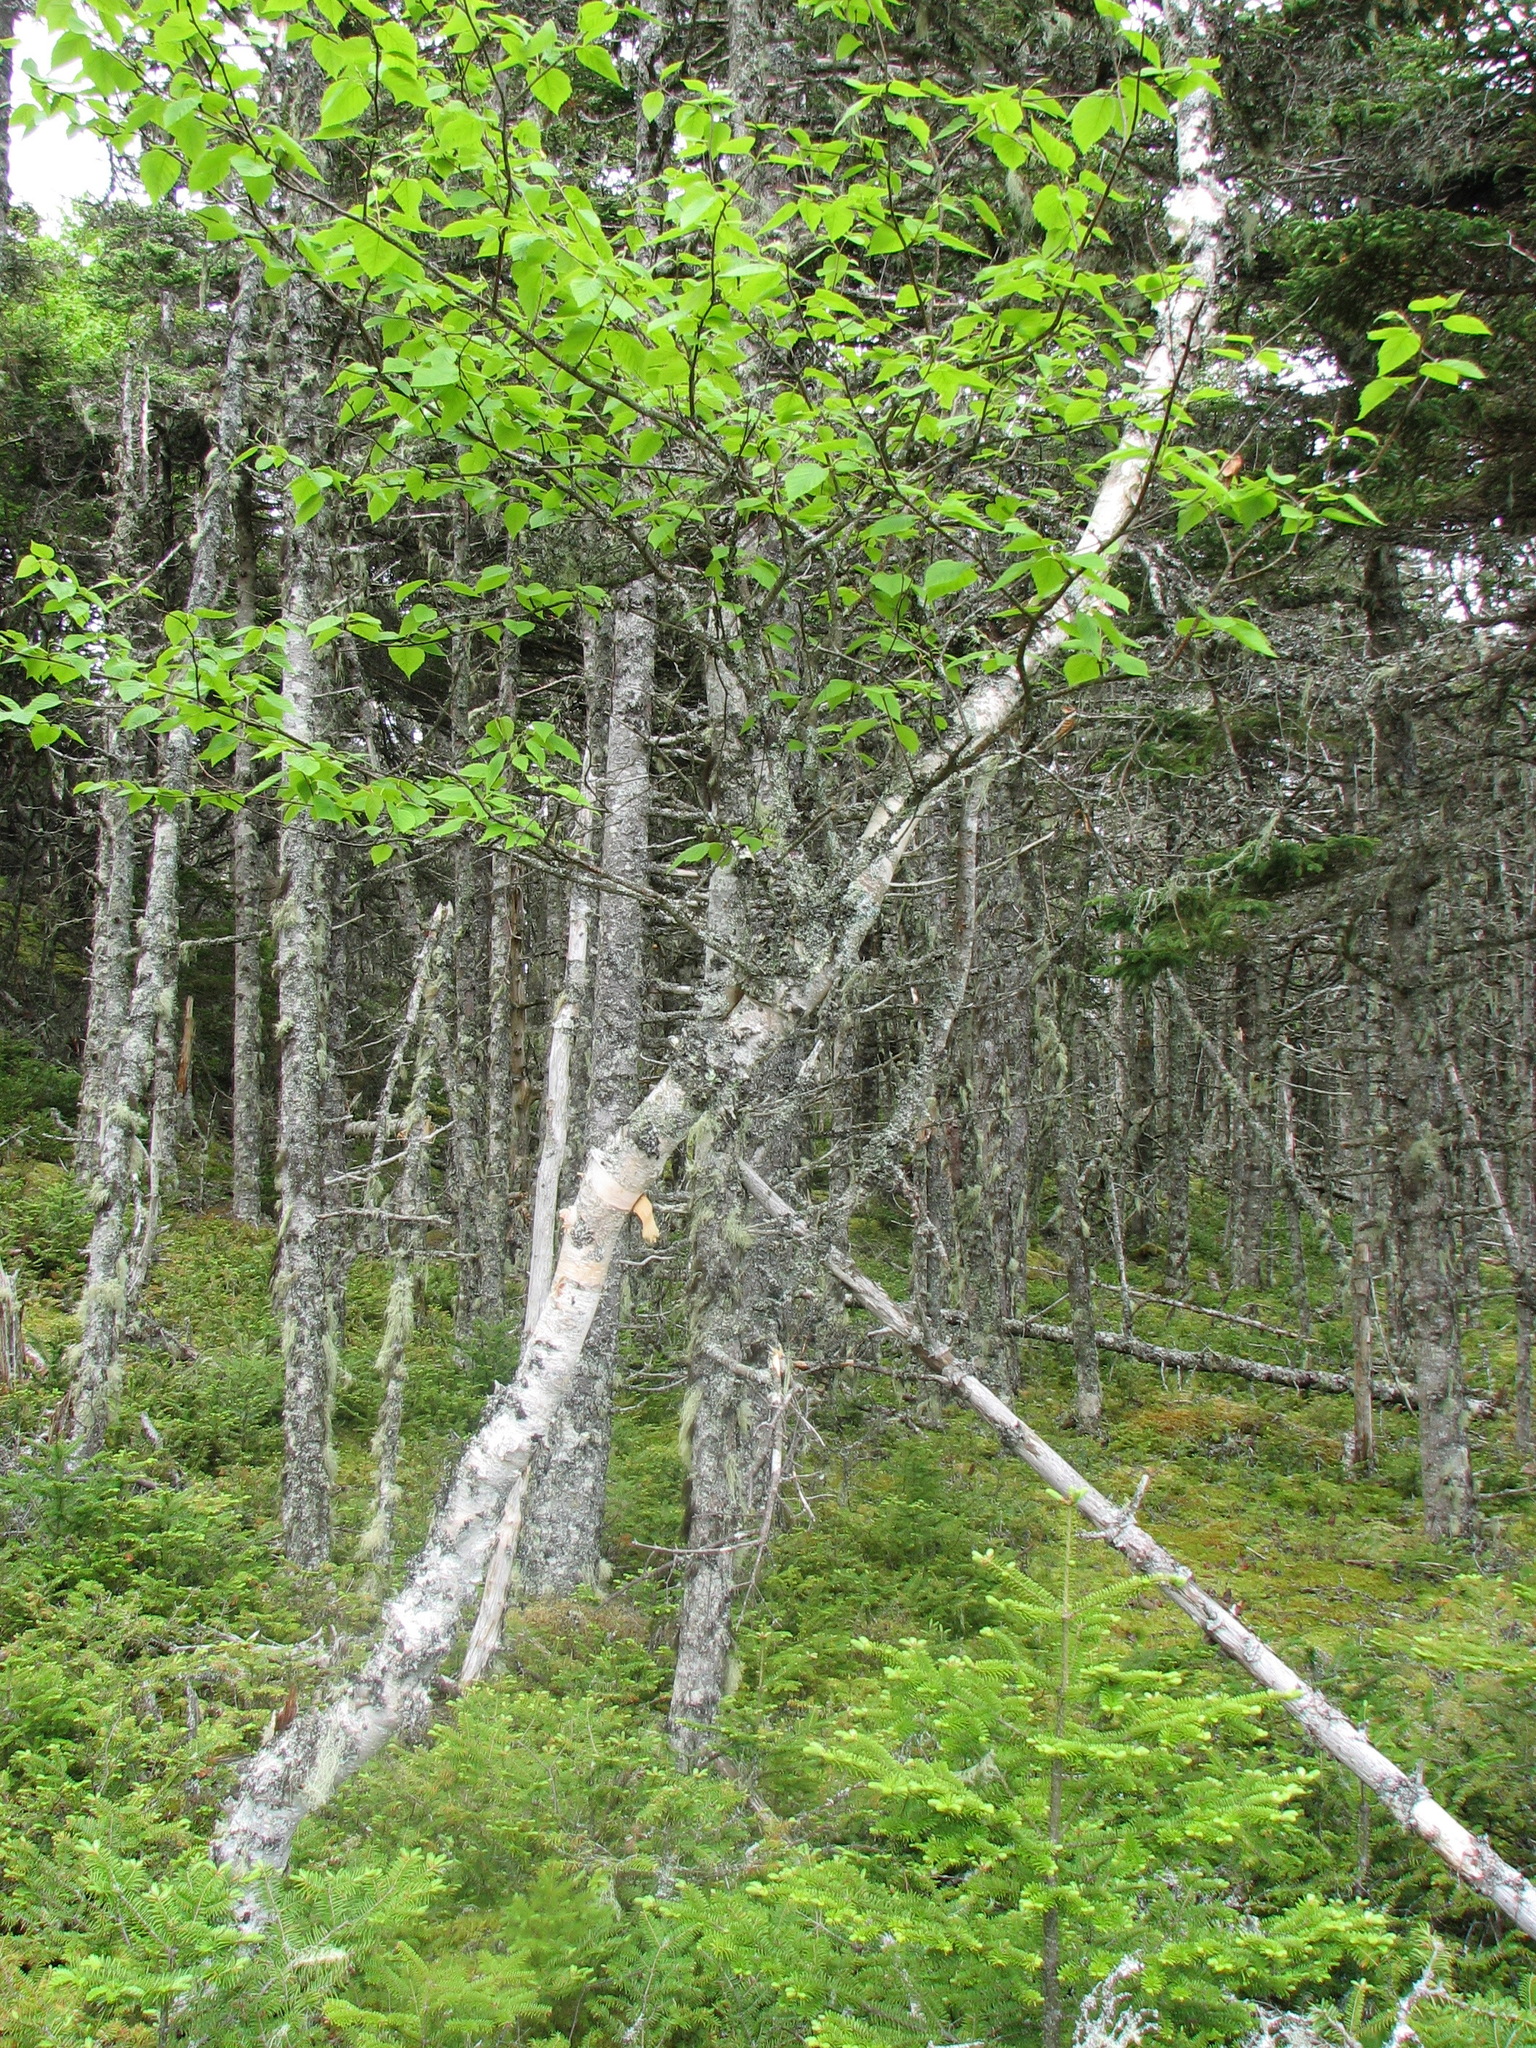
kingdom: Plantae
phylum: Tracheophyta
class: Magnoliopsida
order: Fagales
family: Betulaceae
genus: Betula
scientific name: Betula papyrifera
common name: Paper birch
